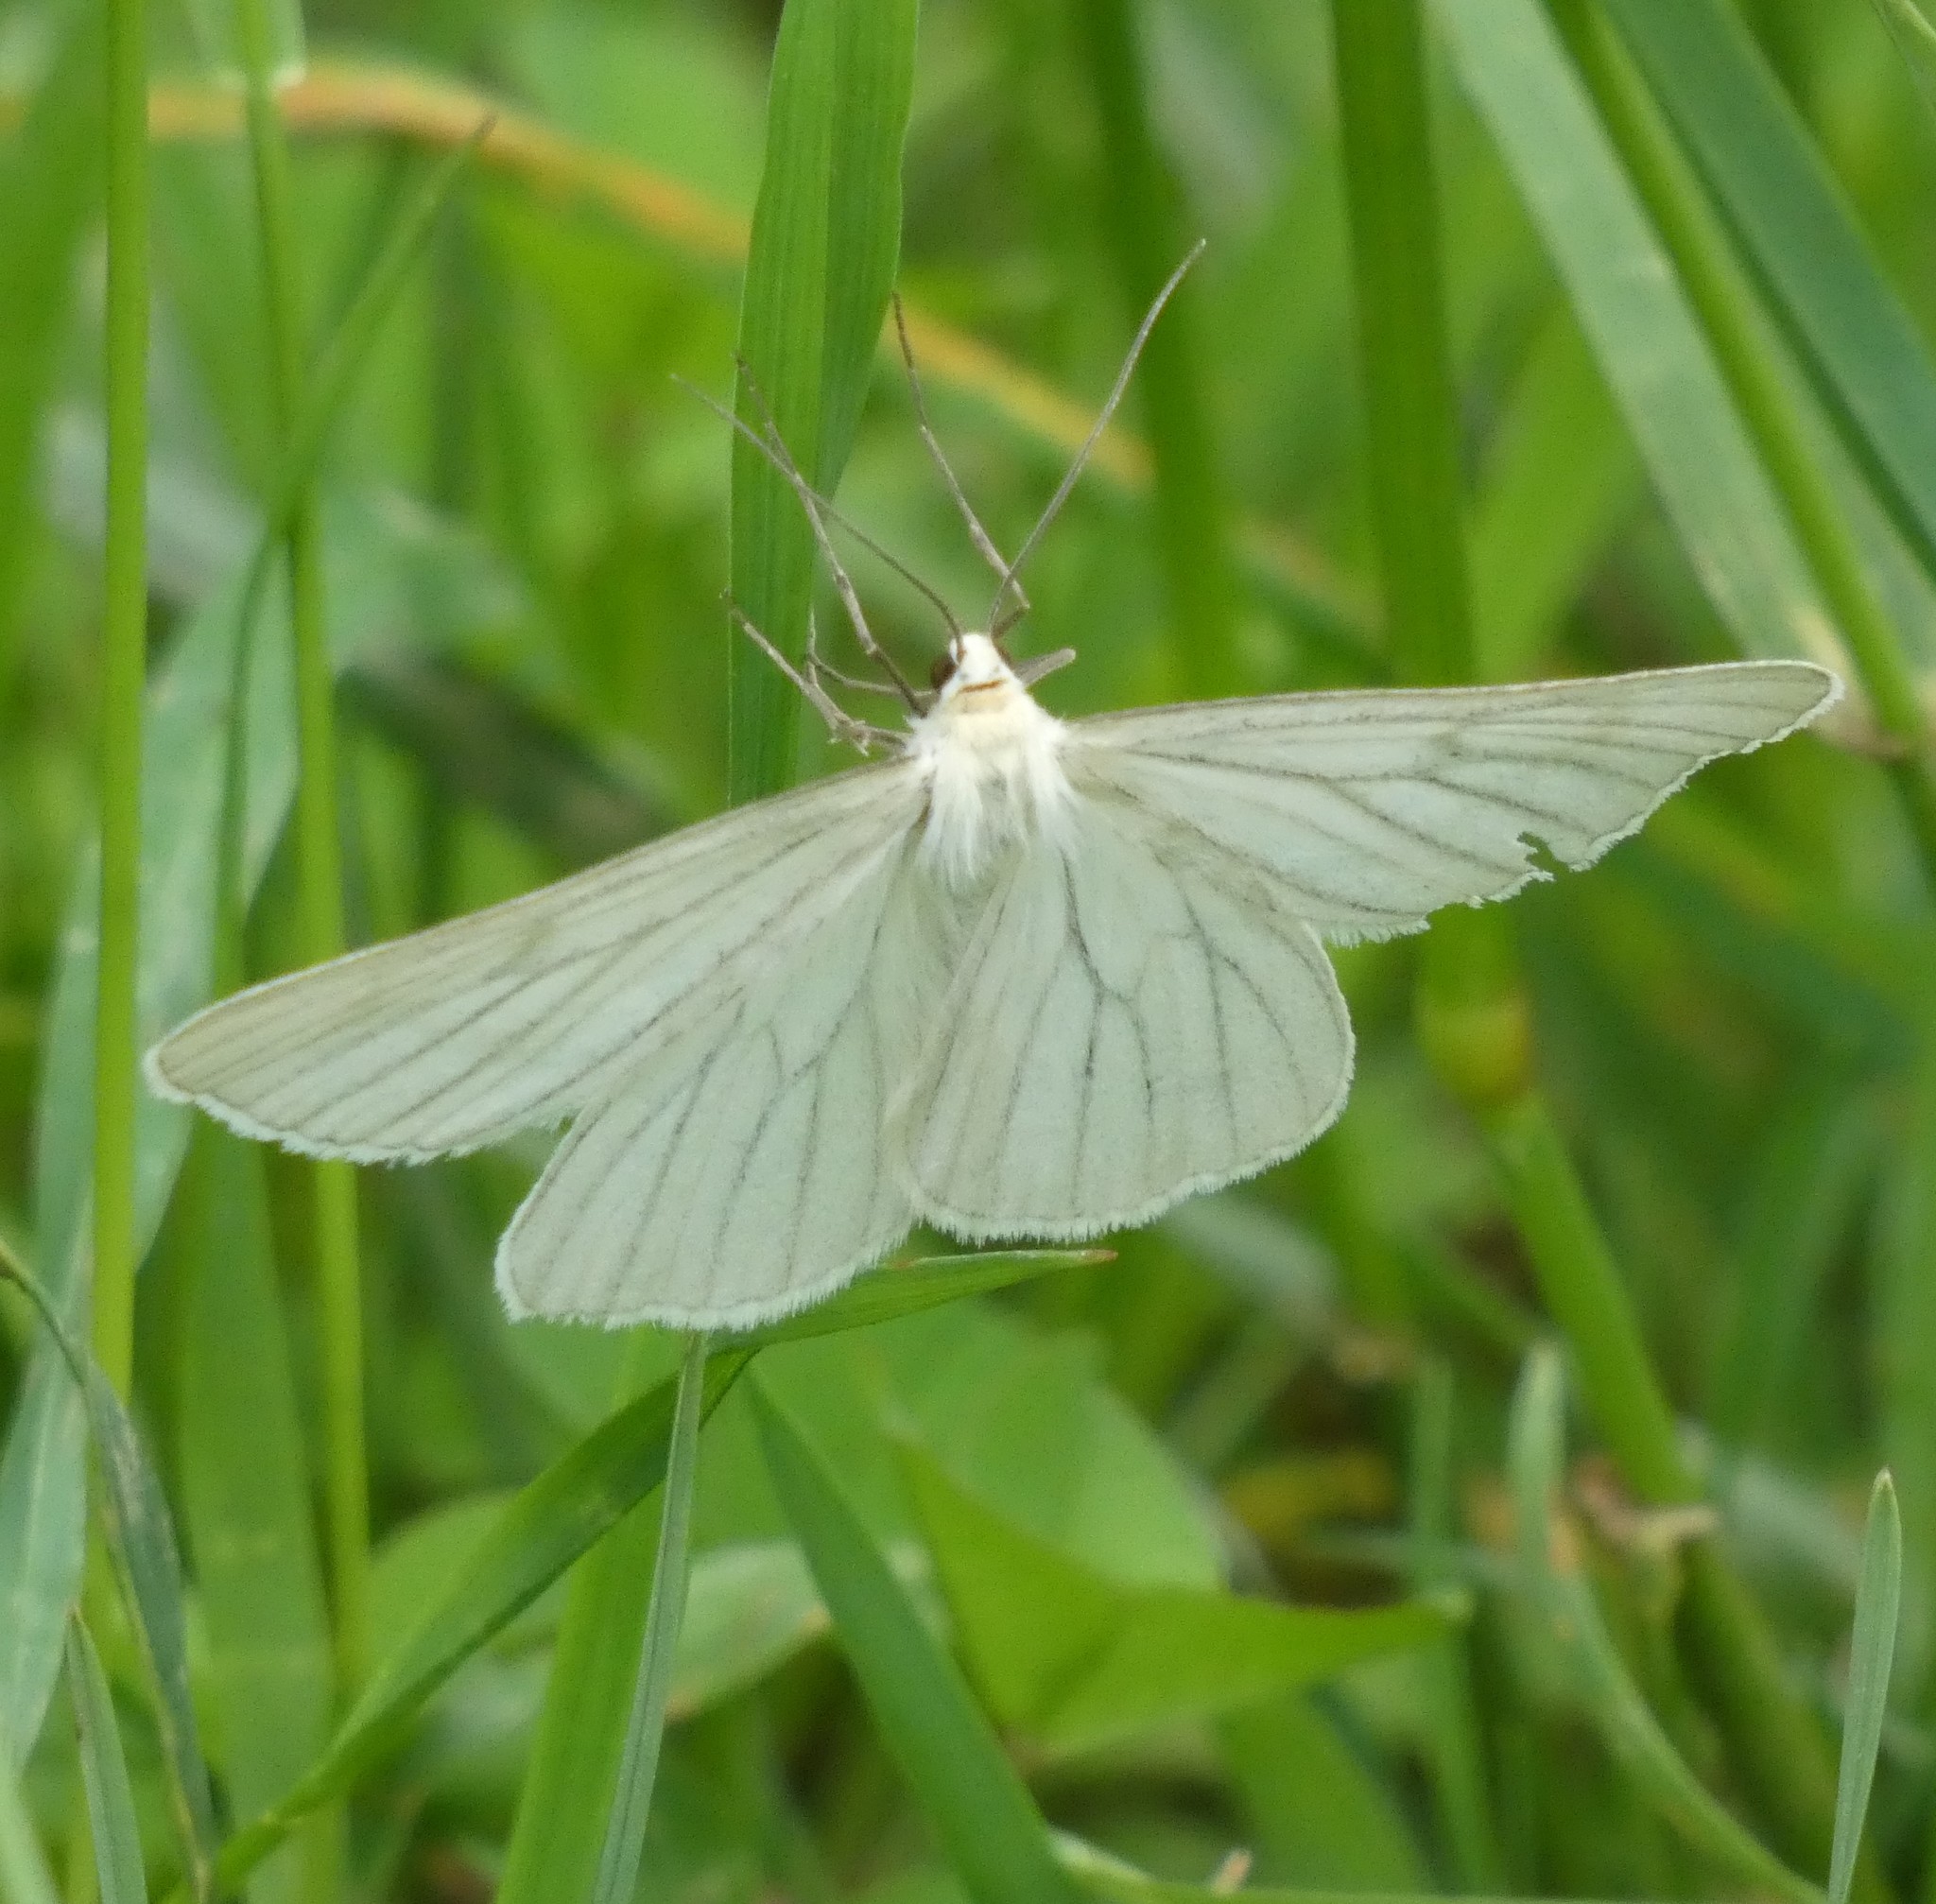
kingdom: Animalia
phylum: Arthropoda
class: Insecta
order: Lepidoptera
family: Geometridae
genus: Siona
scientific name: Siona lineata
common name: Black-veined moth
